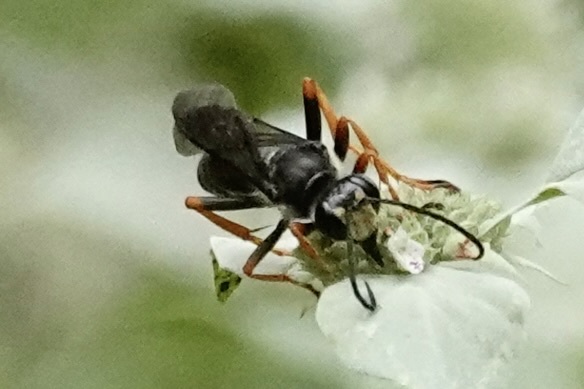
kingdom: Animalia
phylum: Arthropoda
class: Insecta
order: Hymenoptera
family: Sphecidae
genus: Sphex
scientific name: Sphex nudus
